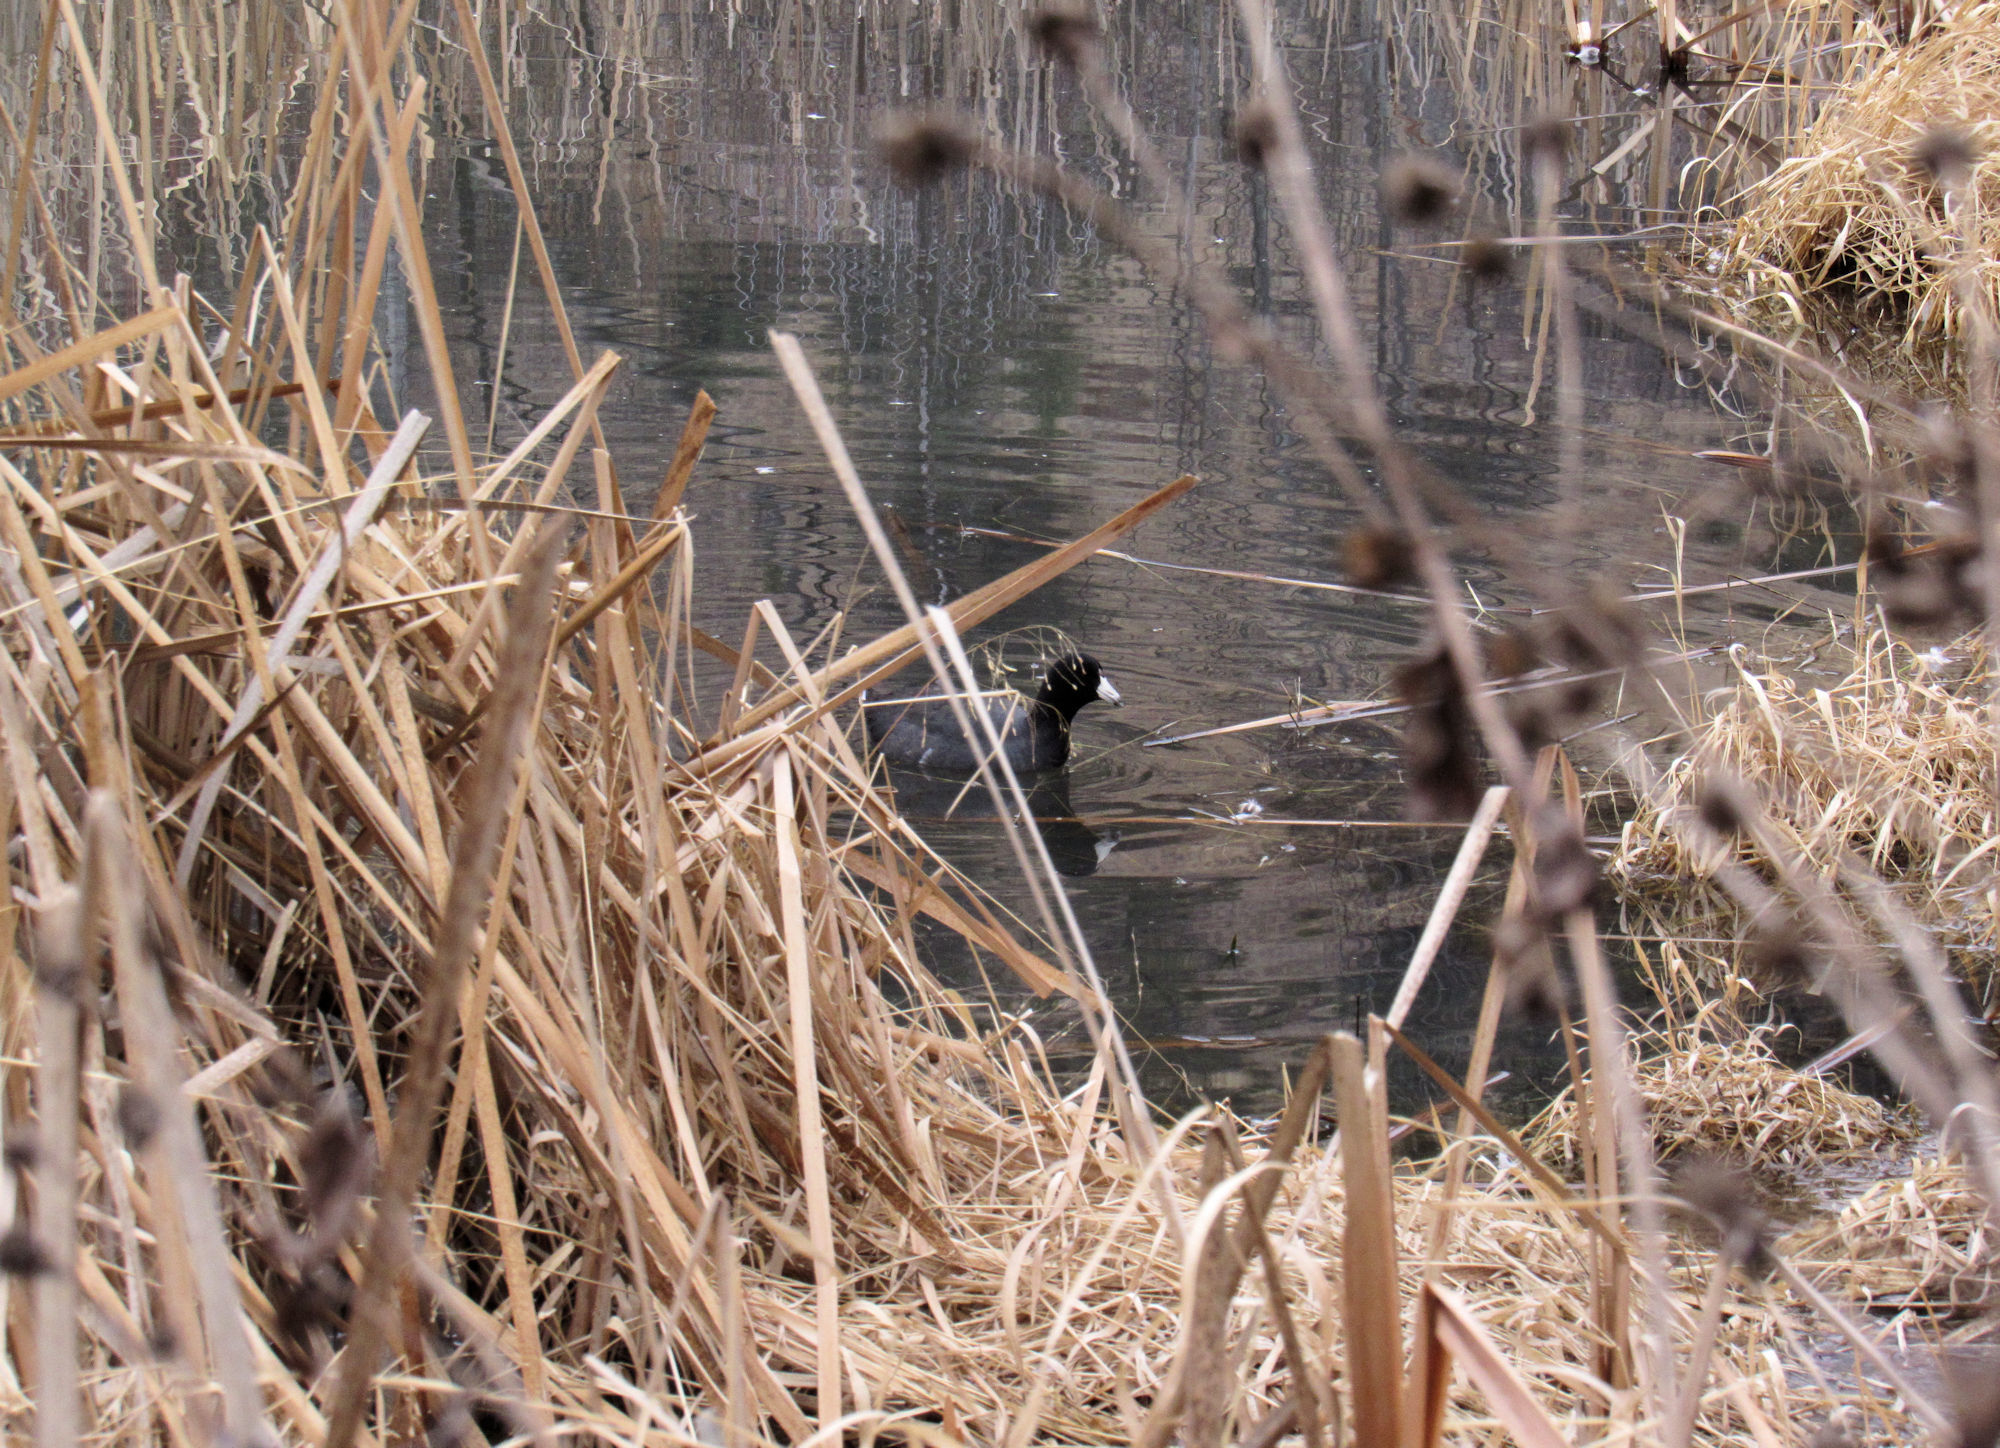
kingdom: Animalia
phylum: Chordata
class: Aves
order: Gruiformes
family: Rallidae
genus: Fulica
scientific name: Fulica americana
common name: American coot
